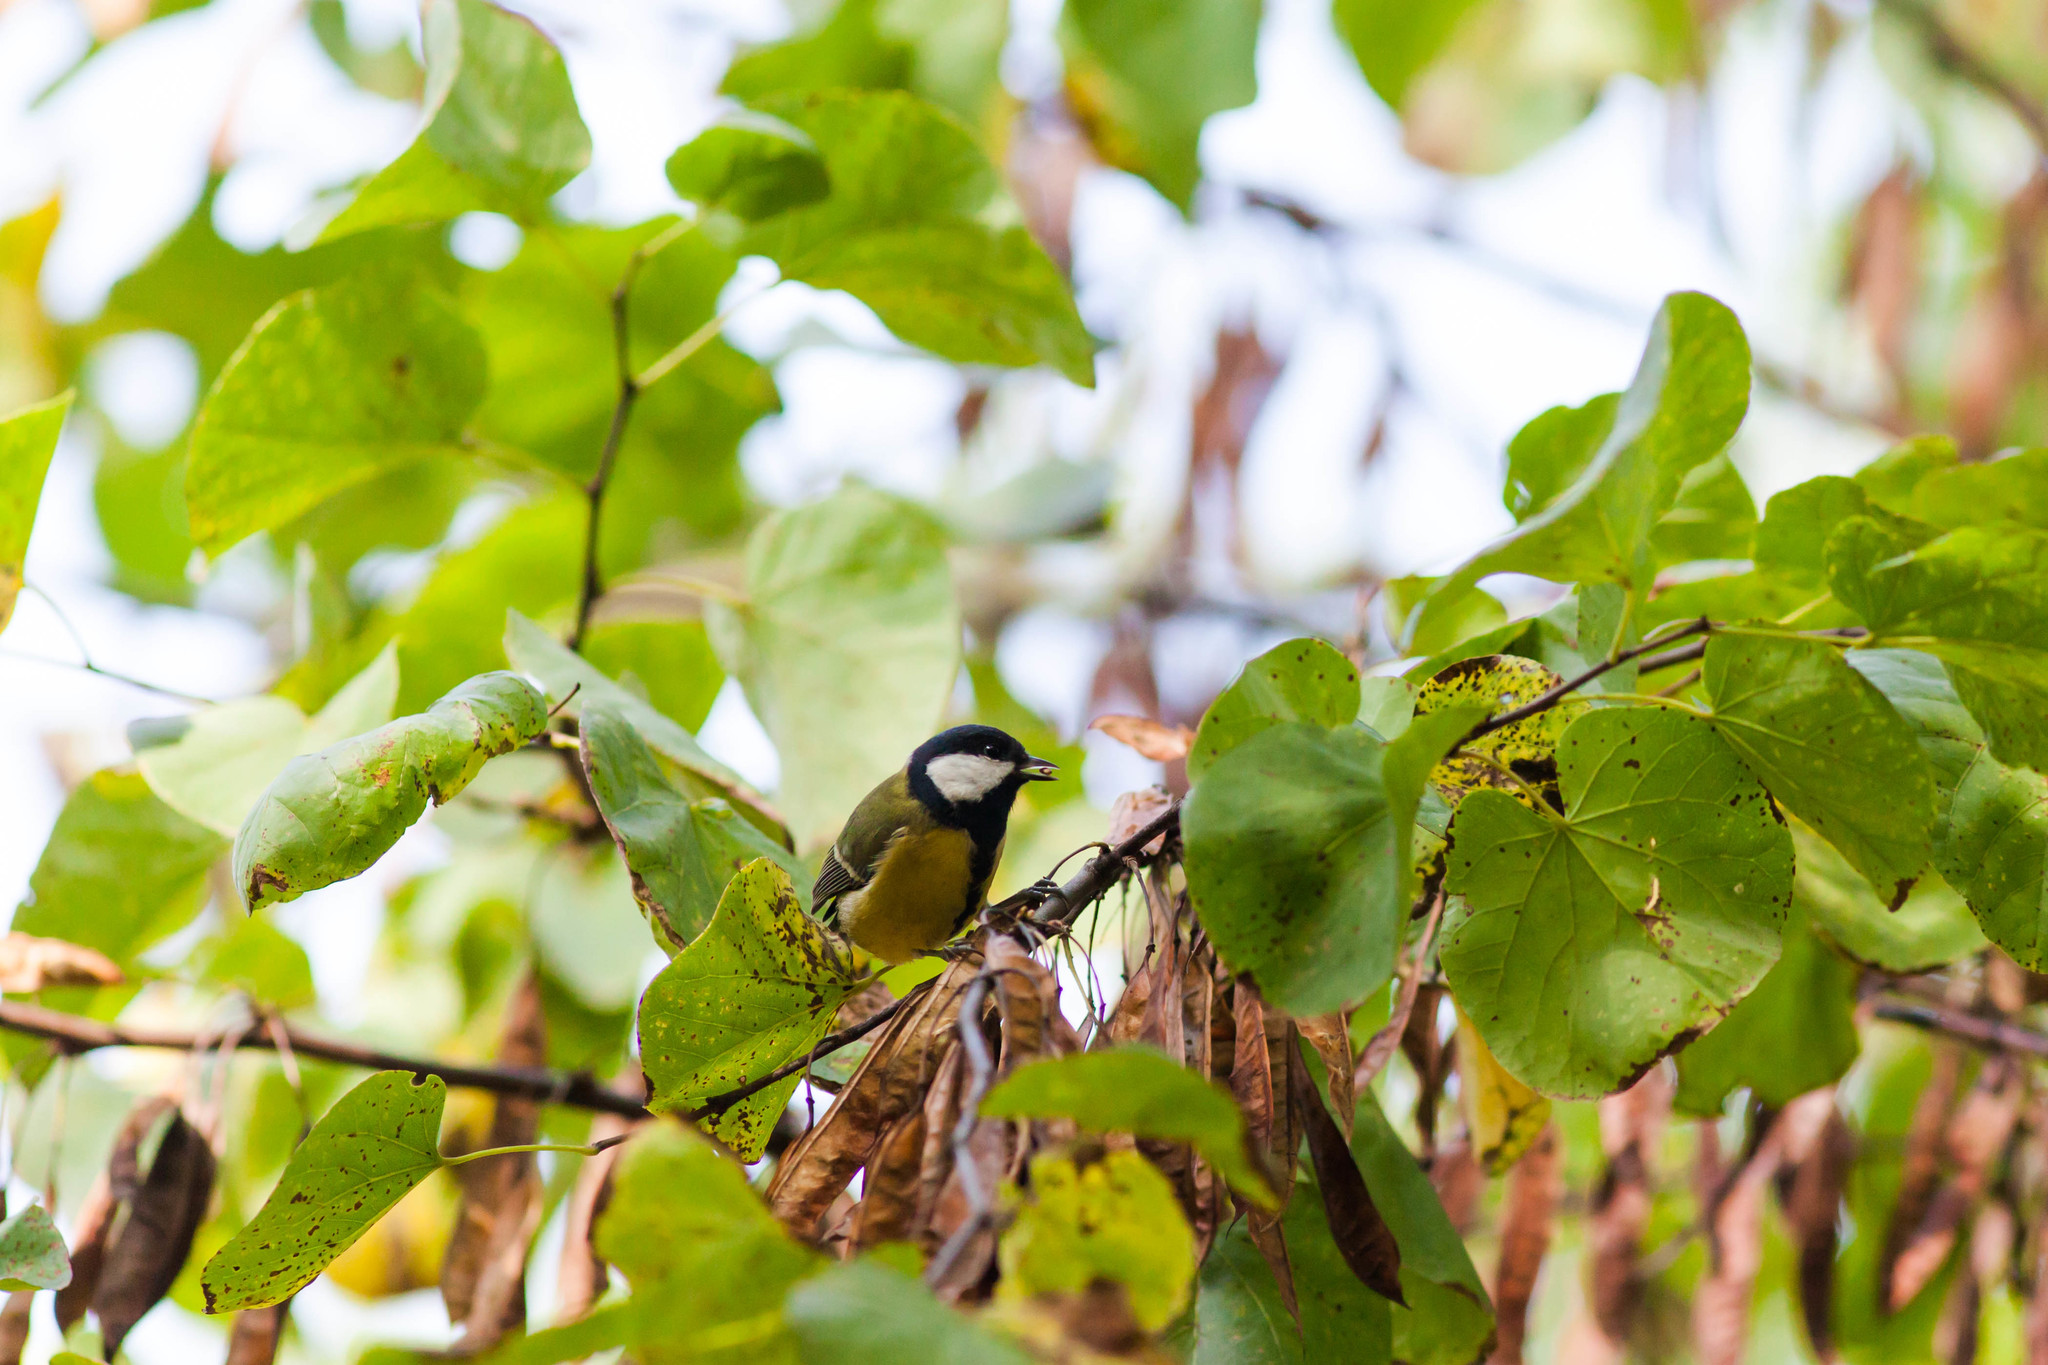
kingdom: Animalia
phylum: Chordata
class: Aves
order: Passeriformes
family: Paridae
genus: Parus
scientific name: Parus major
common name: Great tit
